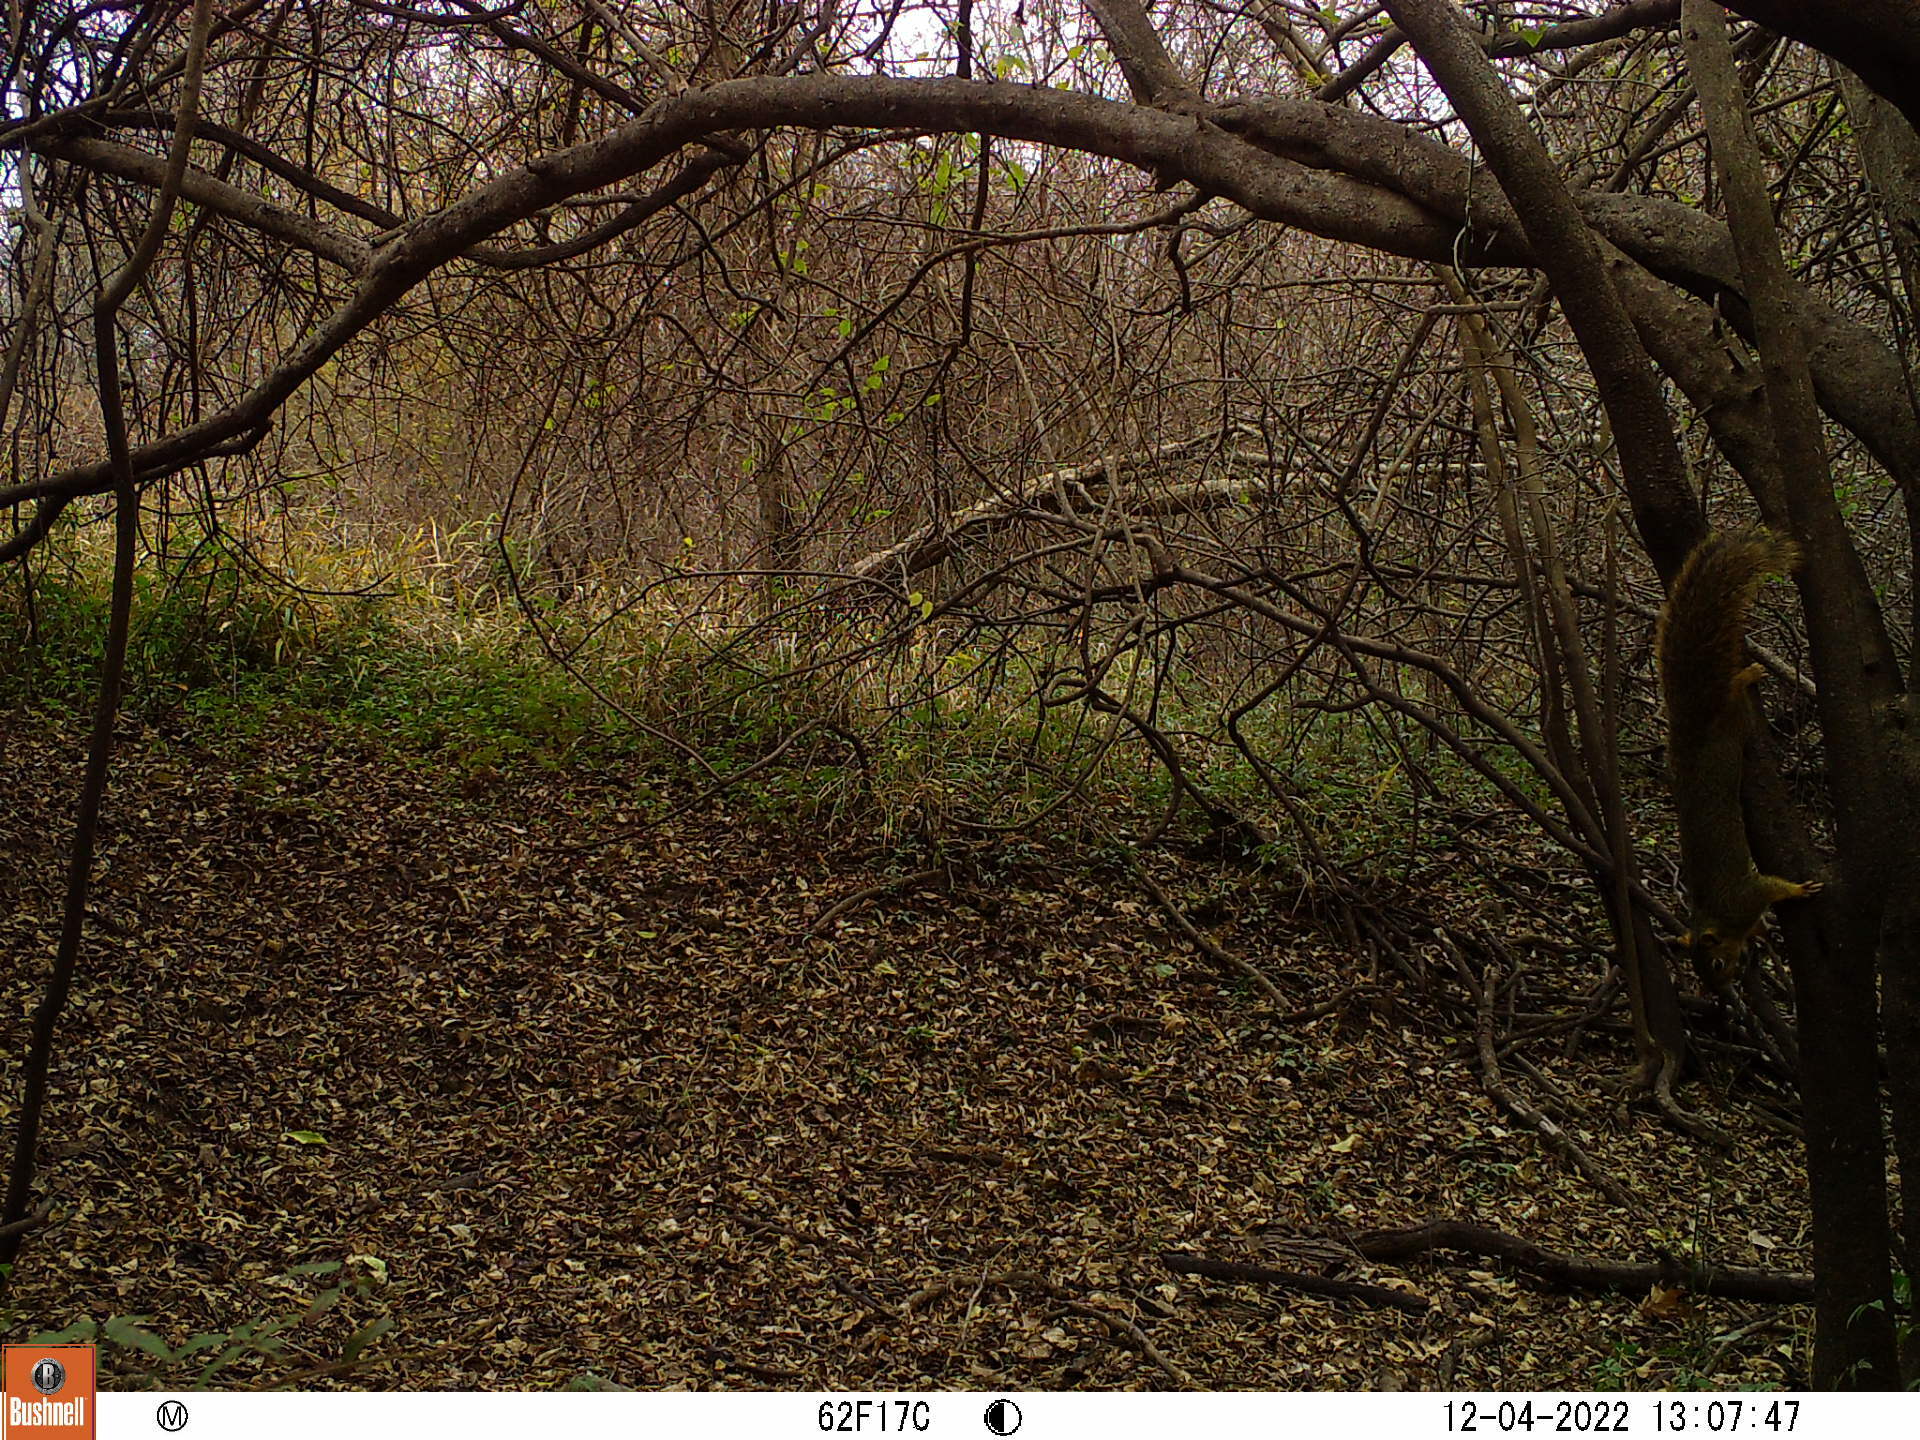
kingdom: Animalia
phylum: Chordata
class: Mammalia
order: Rodentia
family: Sciuridae
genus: Sciurus
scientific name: Sciurus niger
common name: Fox squirrel
